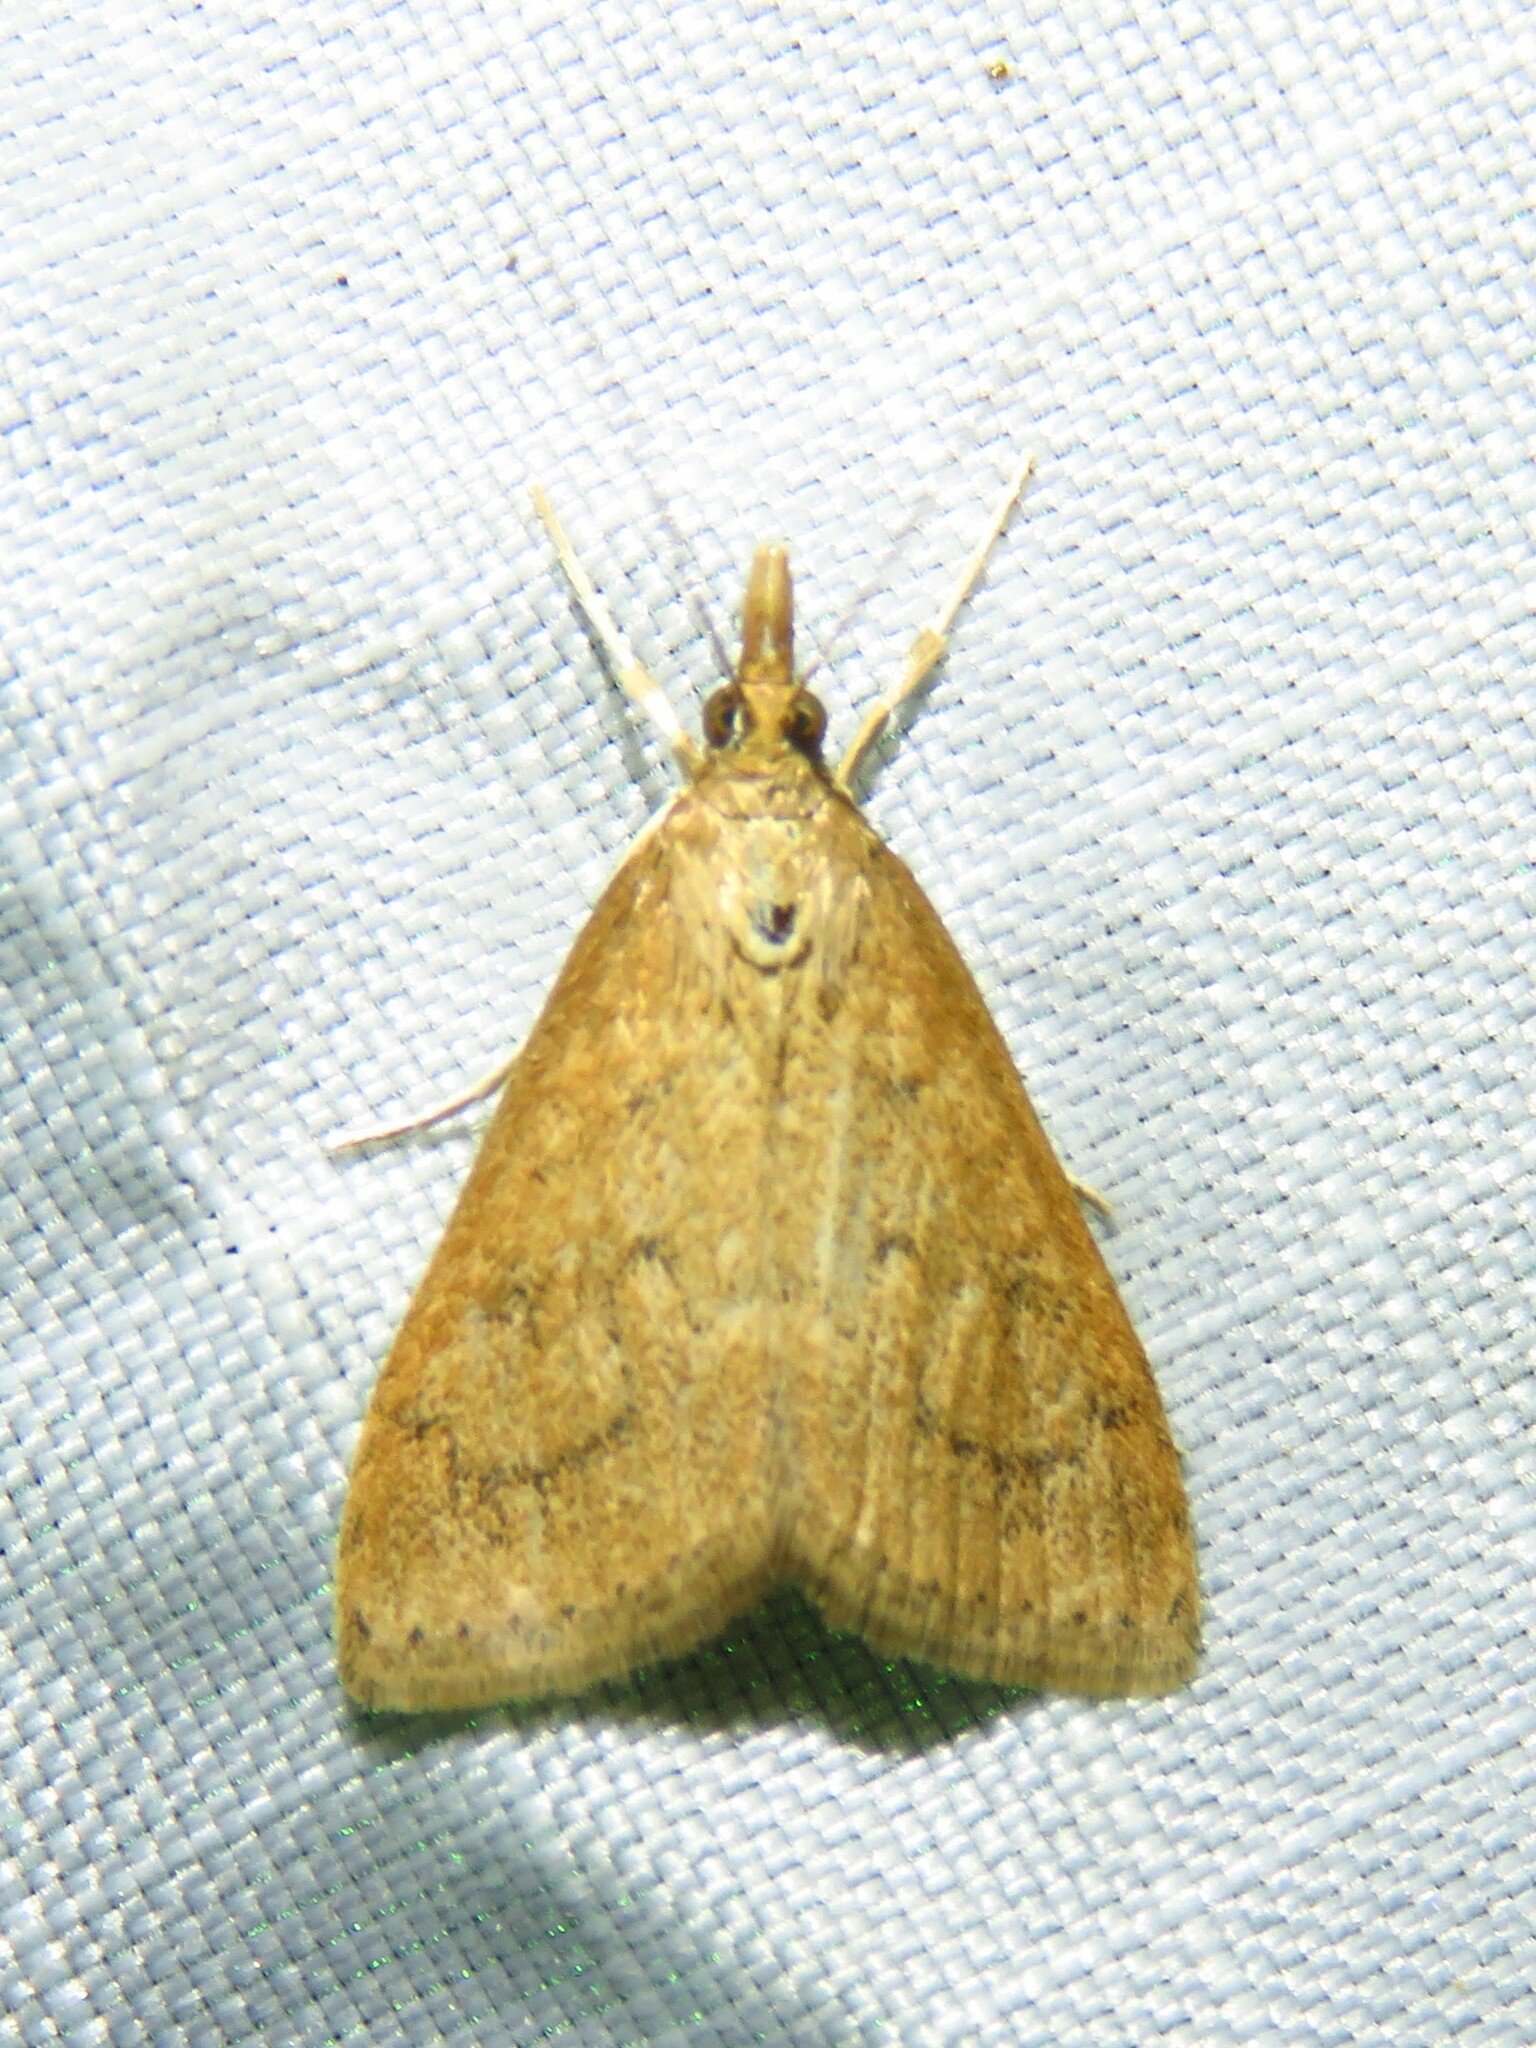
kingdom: Animalia
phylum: Arthropoda
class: Insecta
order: Lepidoptera
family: Crambidae
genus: Udea
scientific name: Udea rubigalis
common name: Celery leaftier moth
